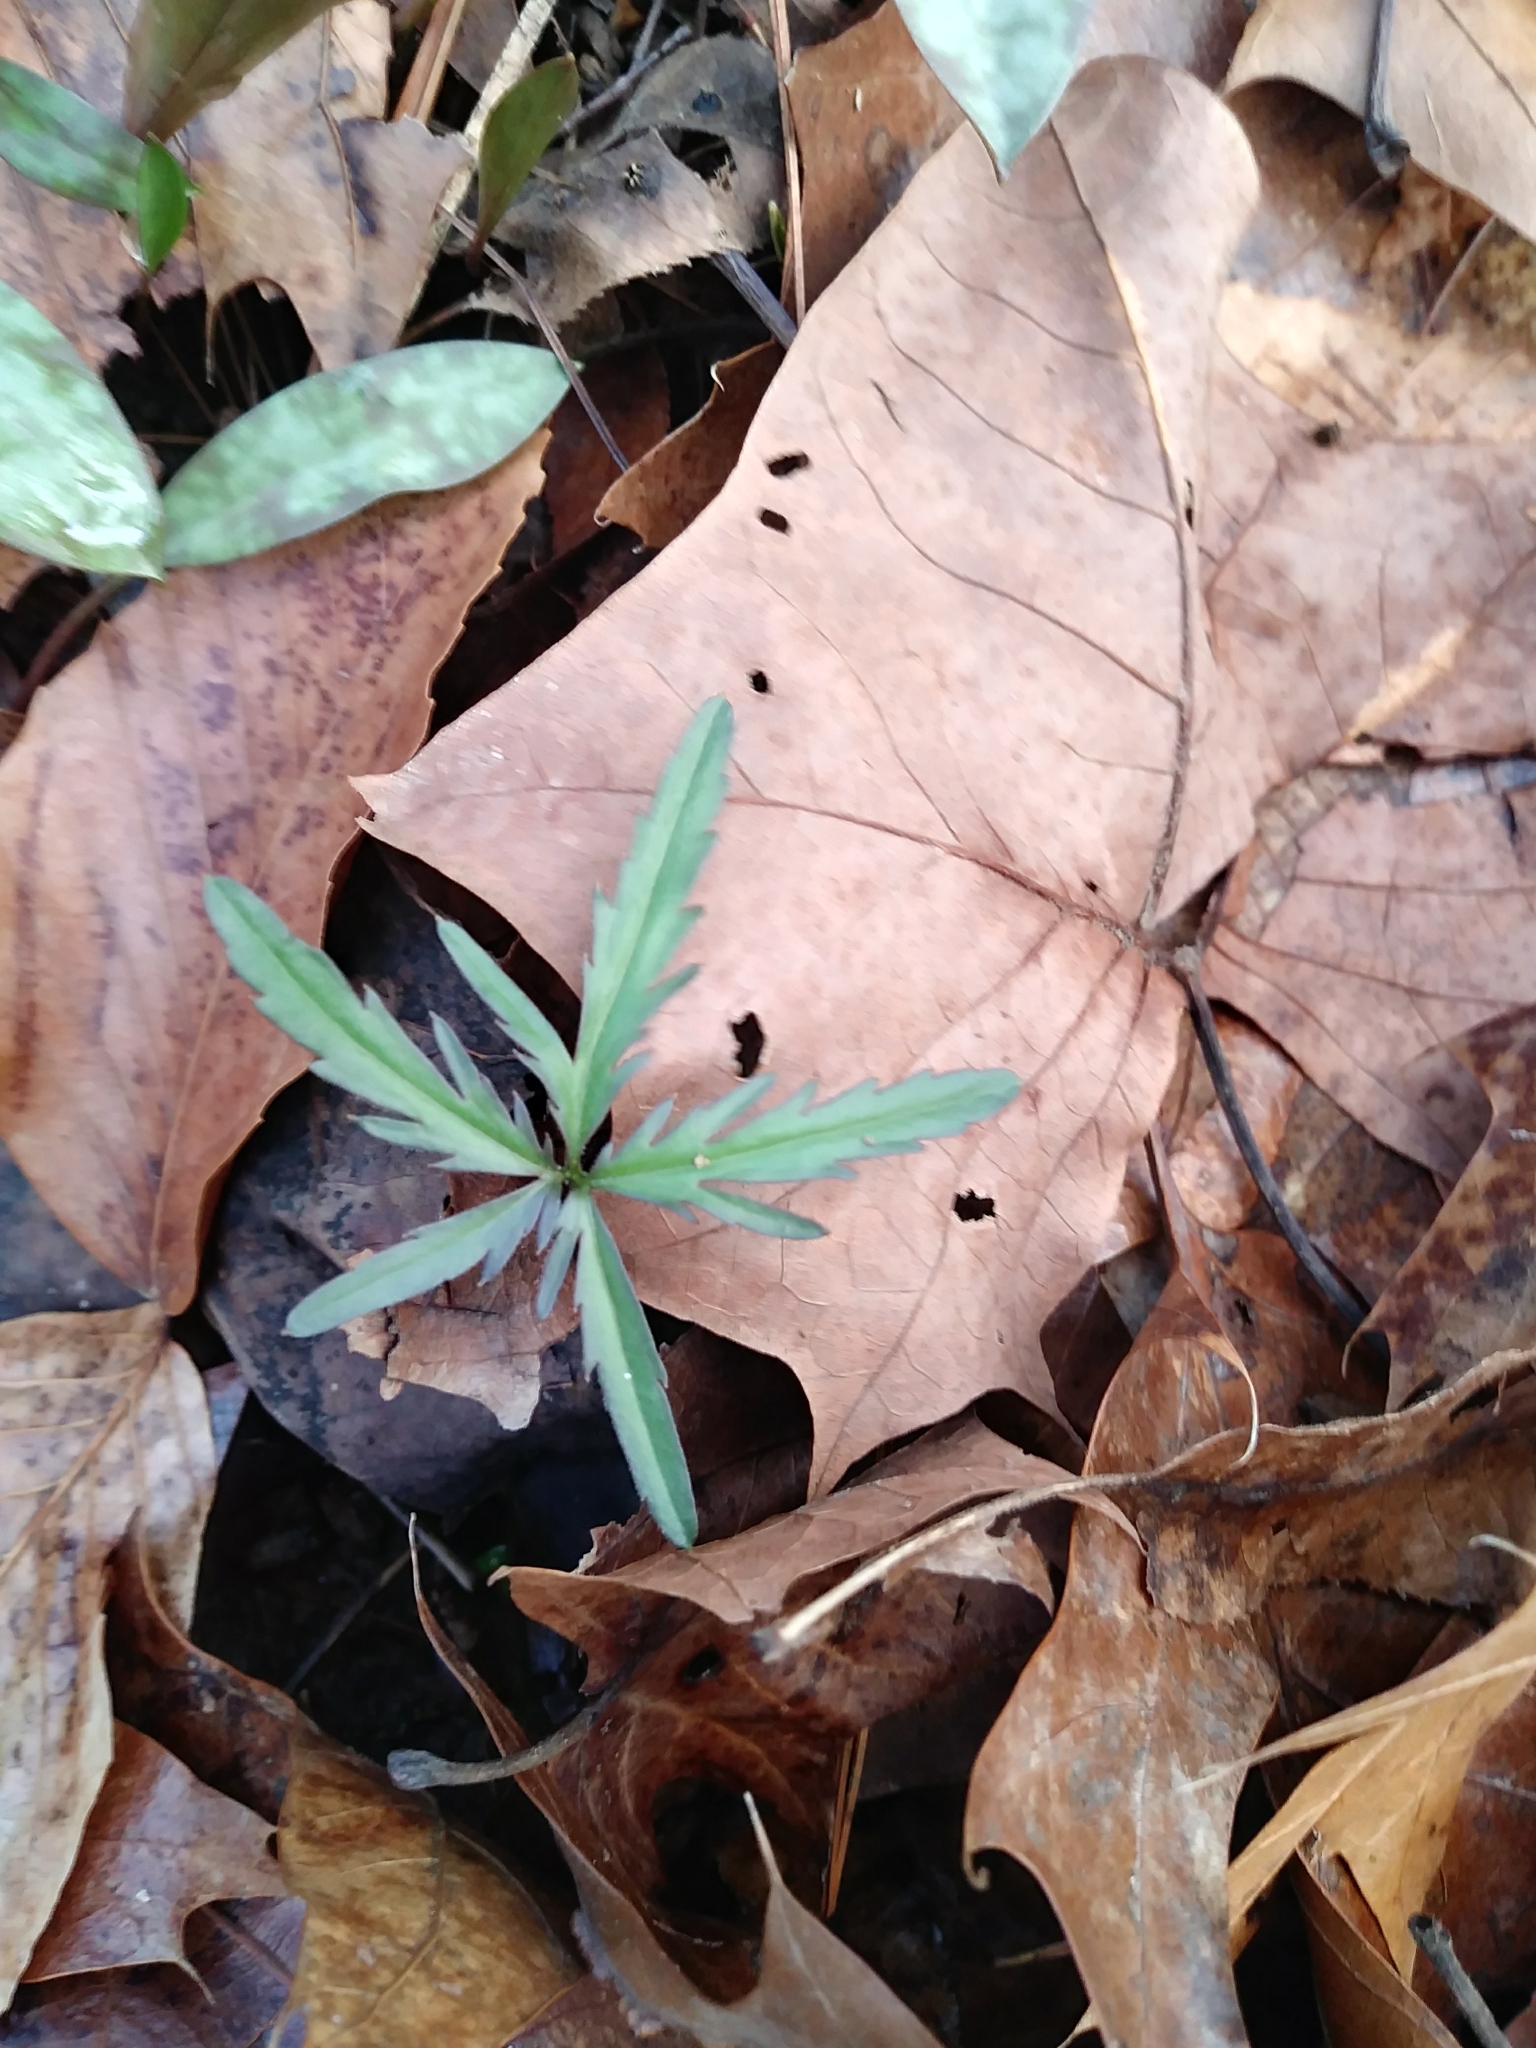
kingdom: Plantae
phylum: Tracheophyta
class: Magnoliopsida
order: Brassicales
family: Brassicaceae
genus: Cardamine
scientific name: Cardamine concatenata
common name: Cut-leaf toothcup
